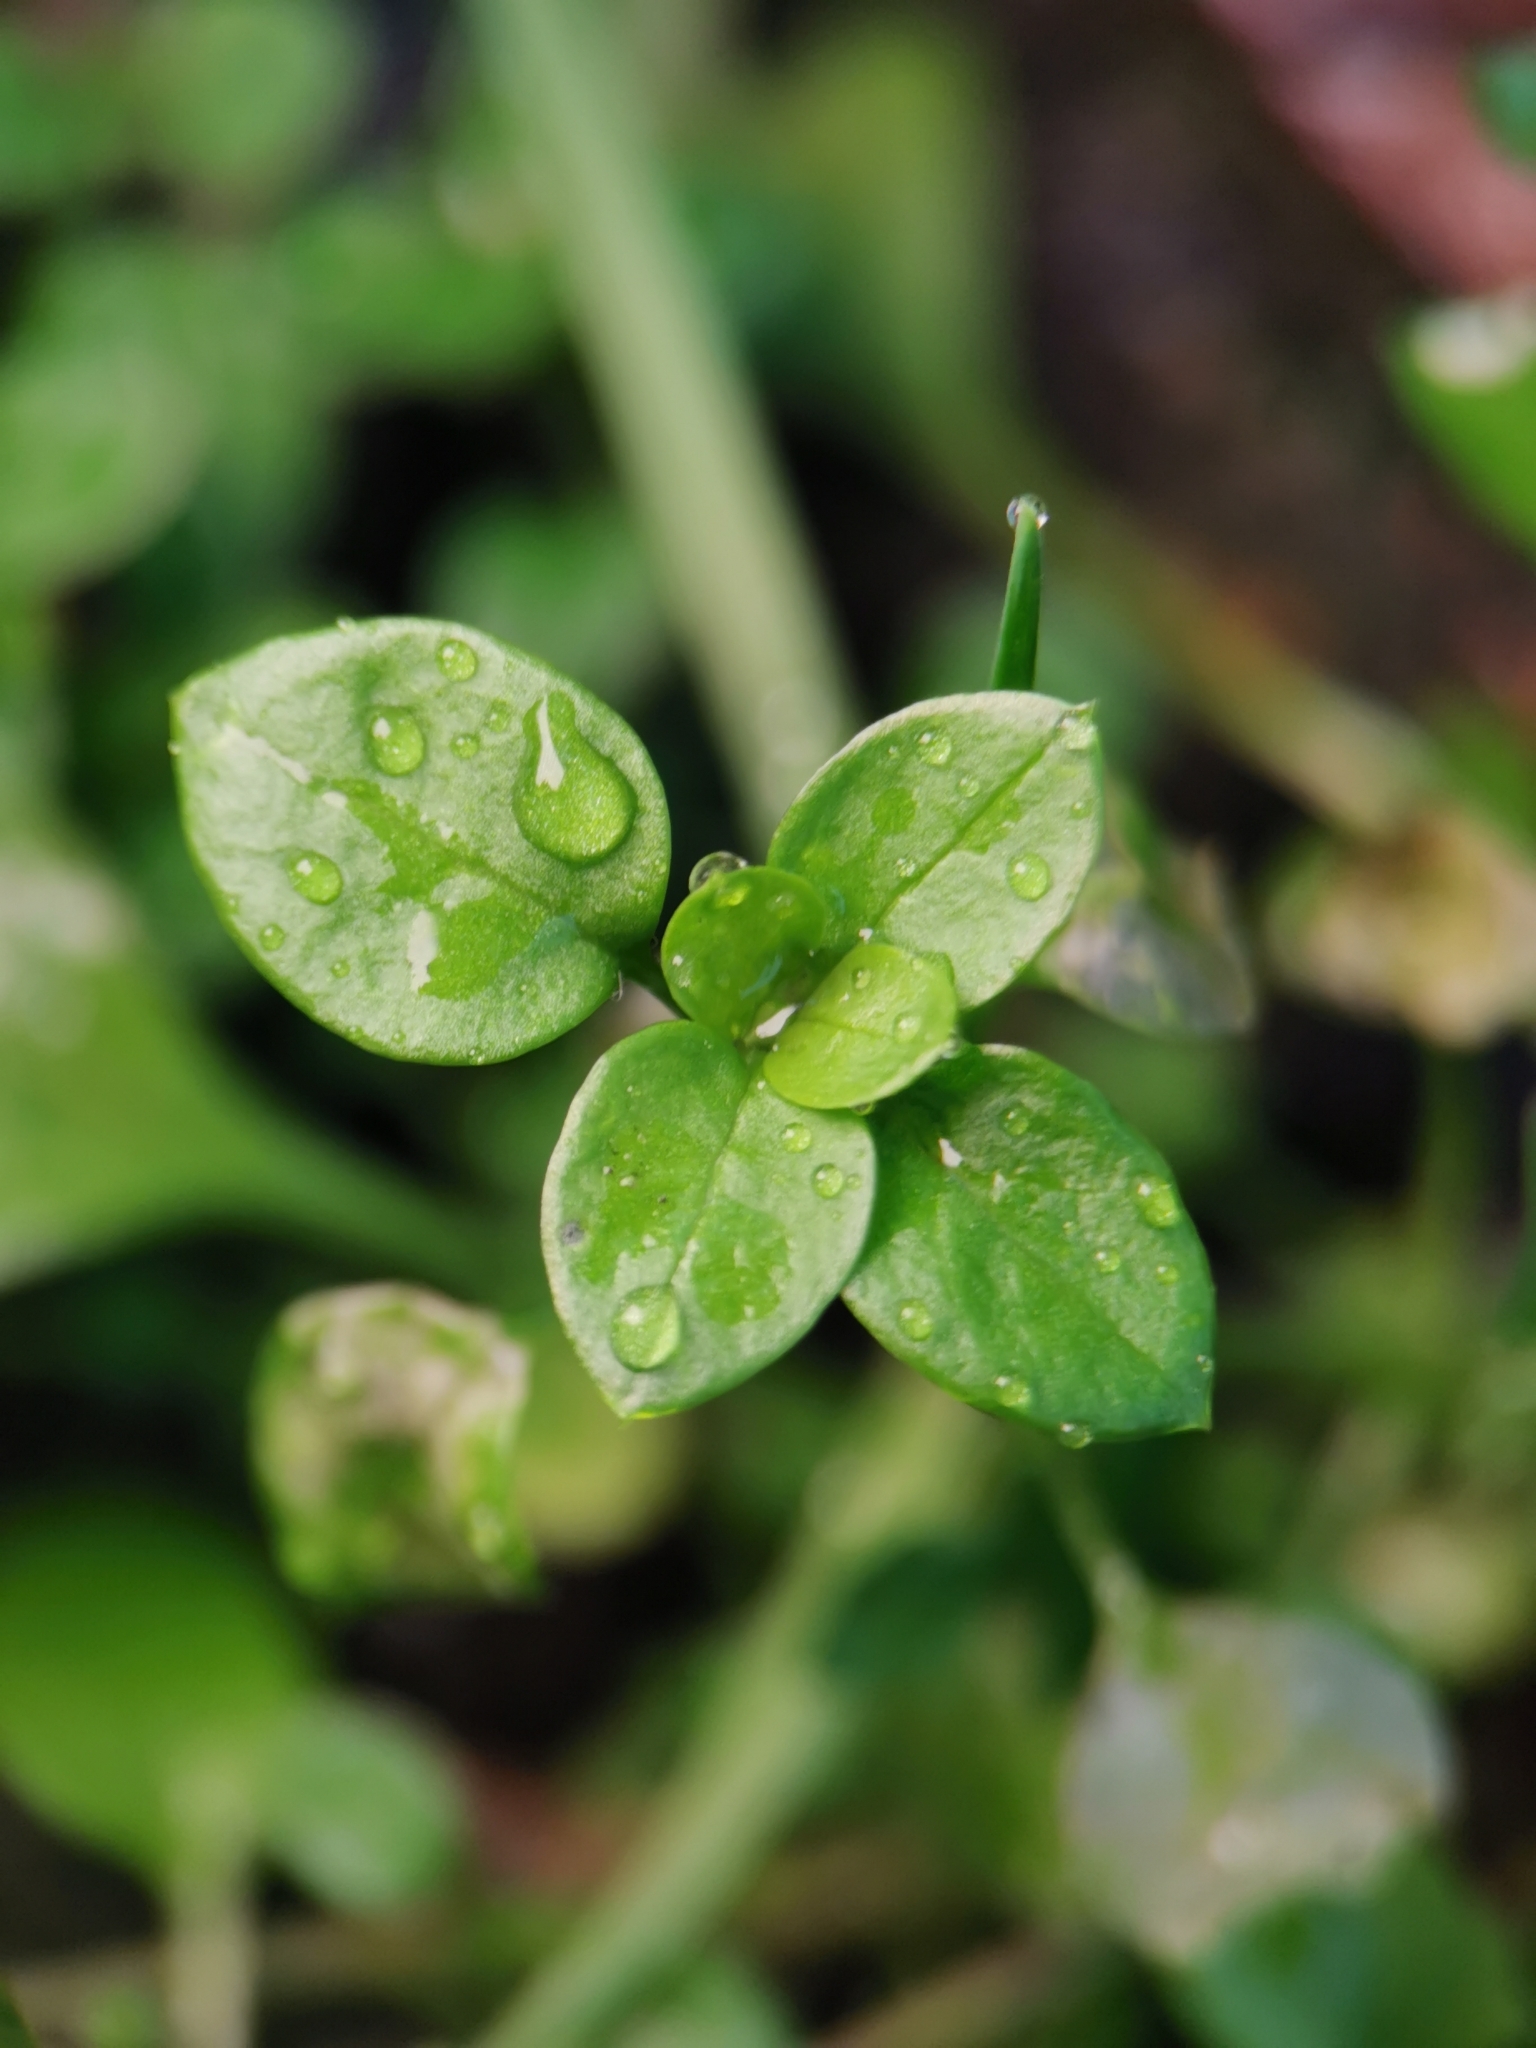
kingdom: Plantae
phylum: Tracheophyta
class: Magnoliopsida
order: Caryophyllales
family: Caryophyllaceae
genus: Stellaria
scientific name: Stellaria media
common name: Common chickweed
